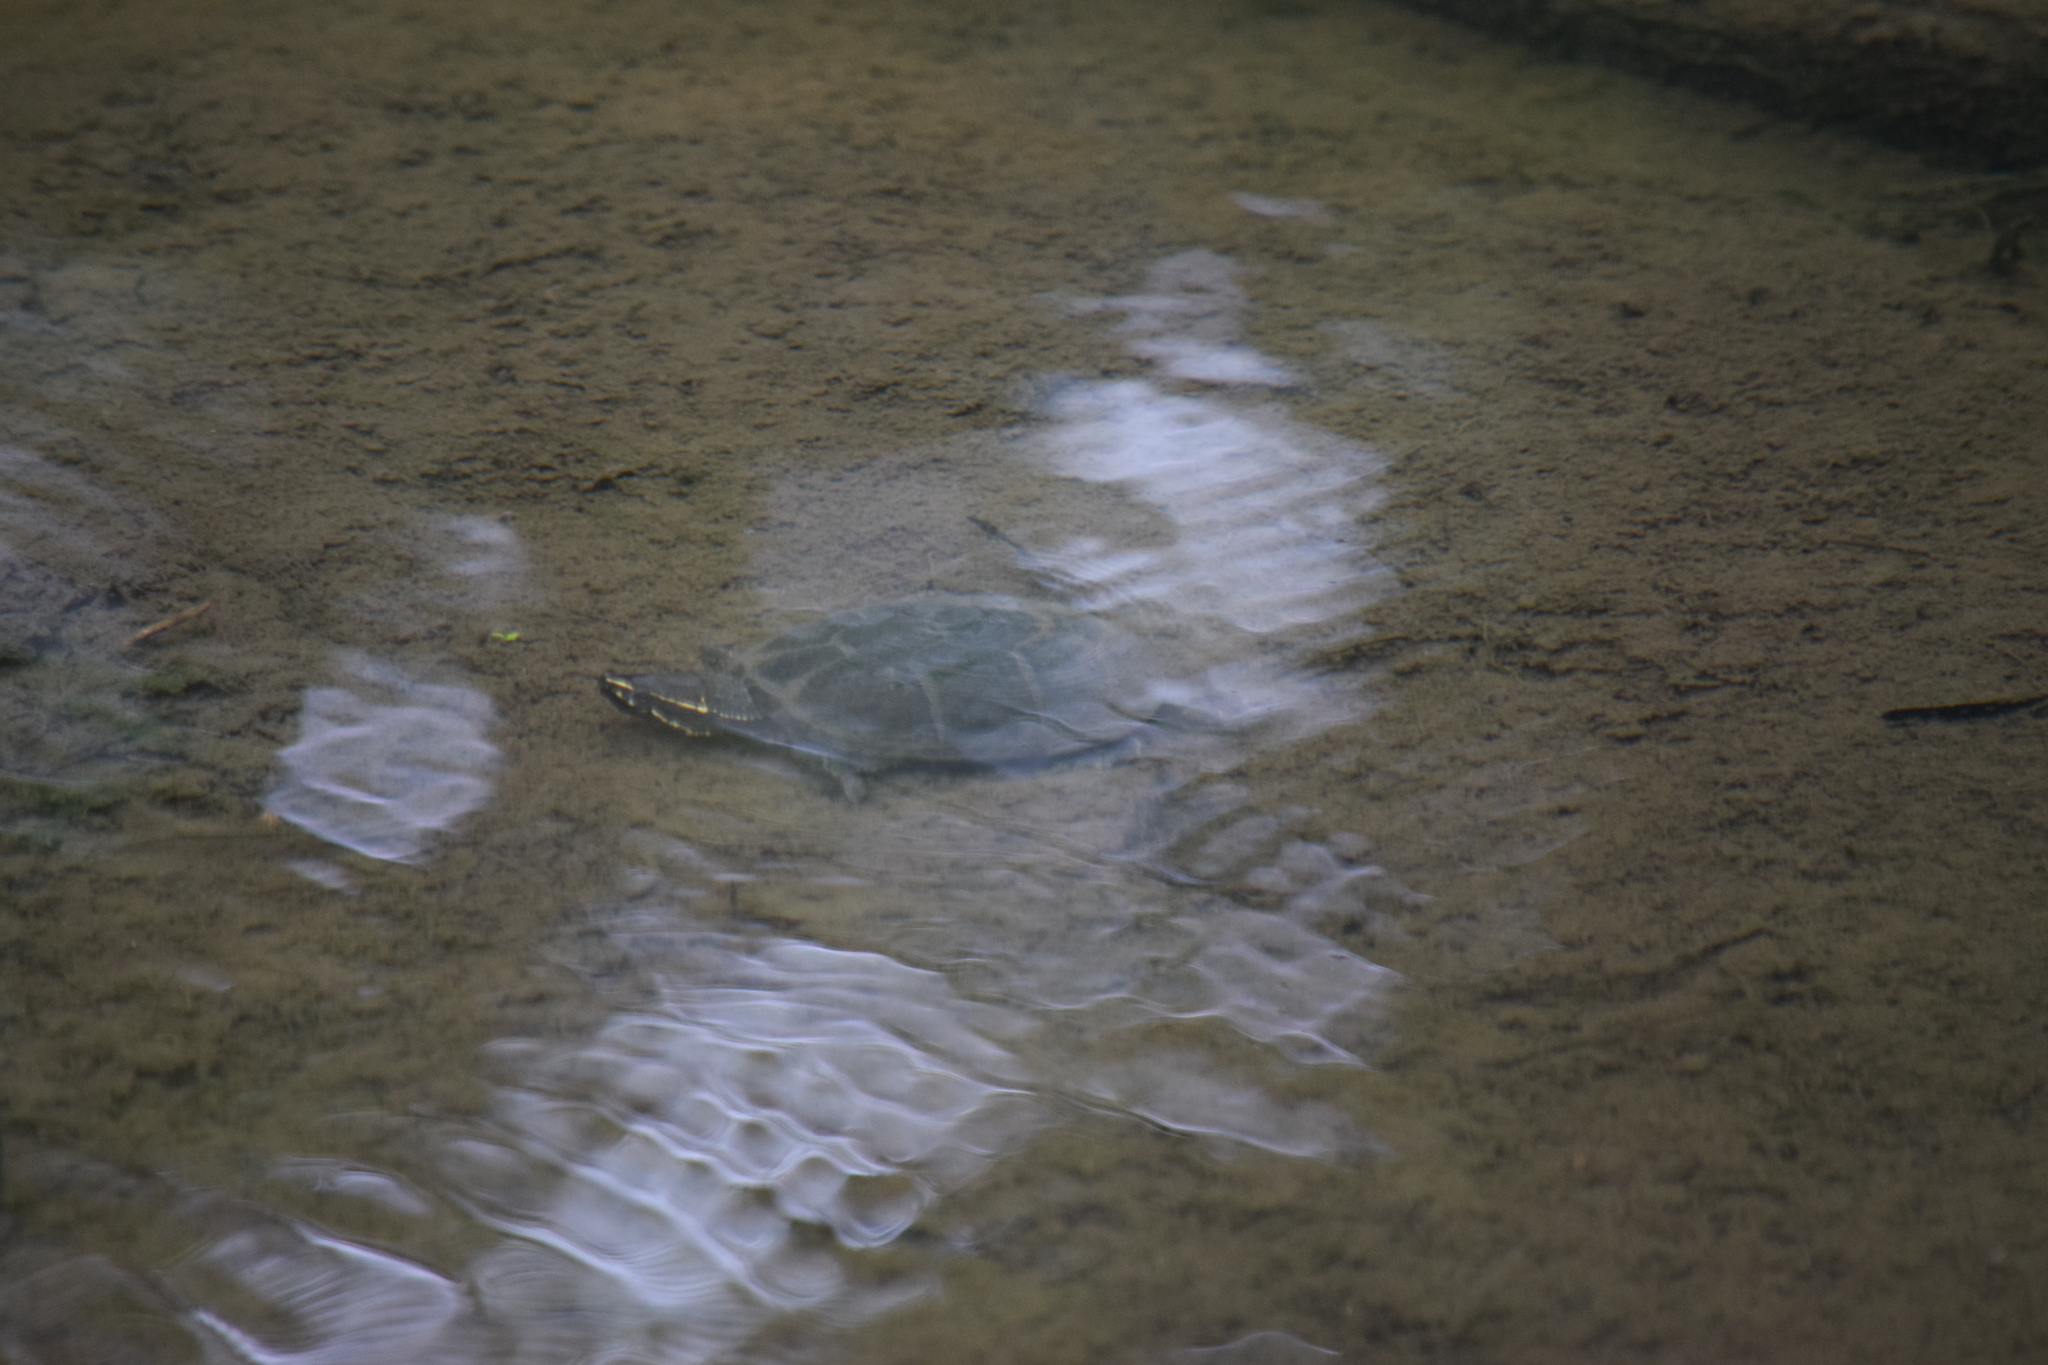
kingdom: Animalia
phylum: Chordata
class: Testudines
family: Kinosternidae
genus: Sternotherus
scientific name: Sternotherus odoratus
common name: Common musk turtle
